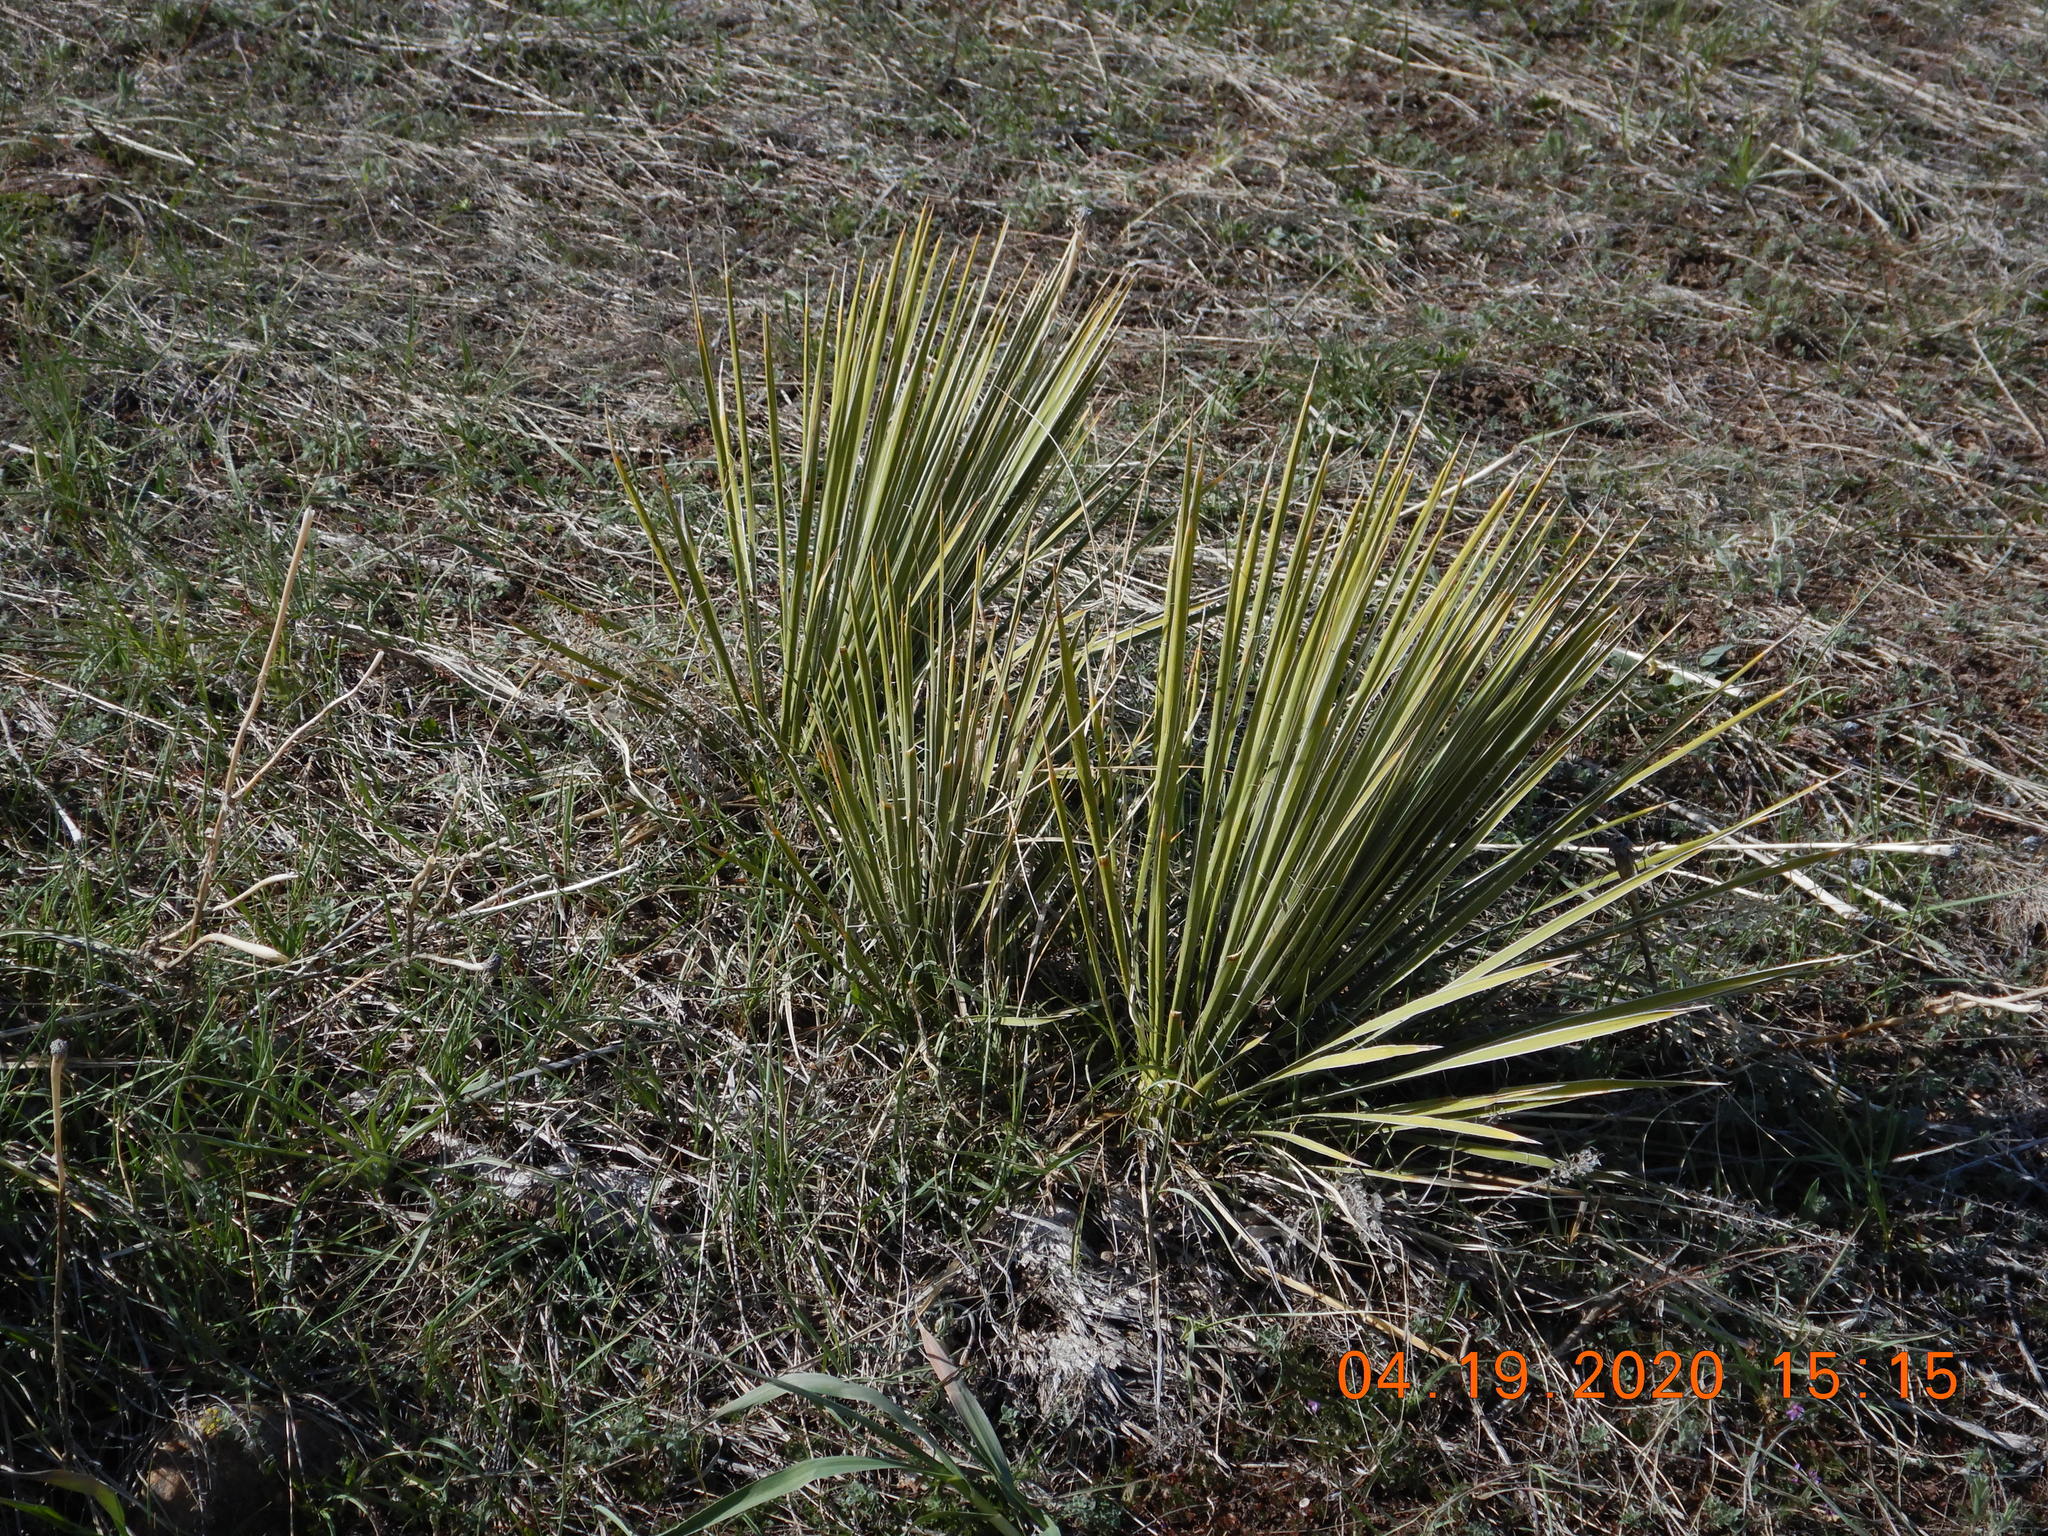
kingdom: Plantae
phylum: Tracheophyta
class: Liliopsida
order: Asparagales
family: Asparagaceae
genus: Yucca
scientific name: Yucca glauca
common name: Great plains yucca
